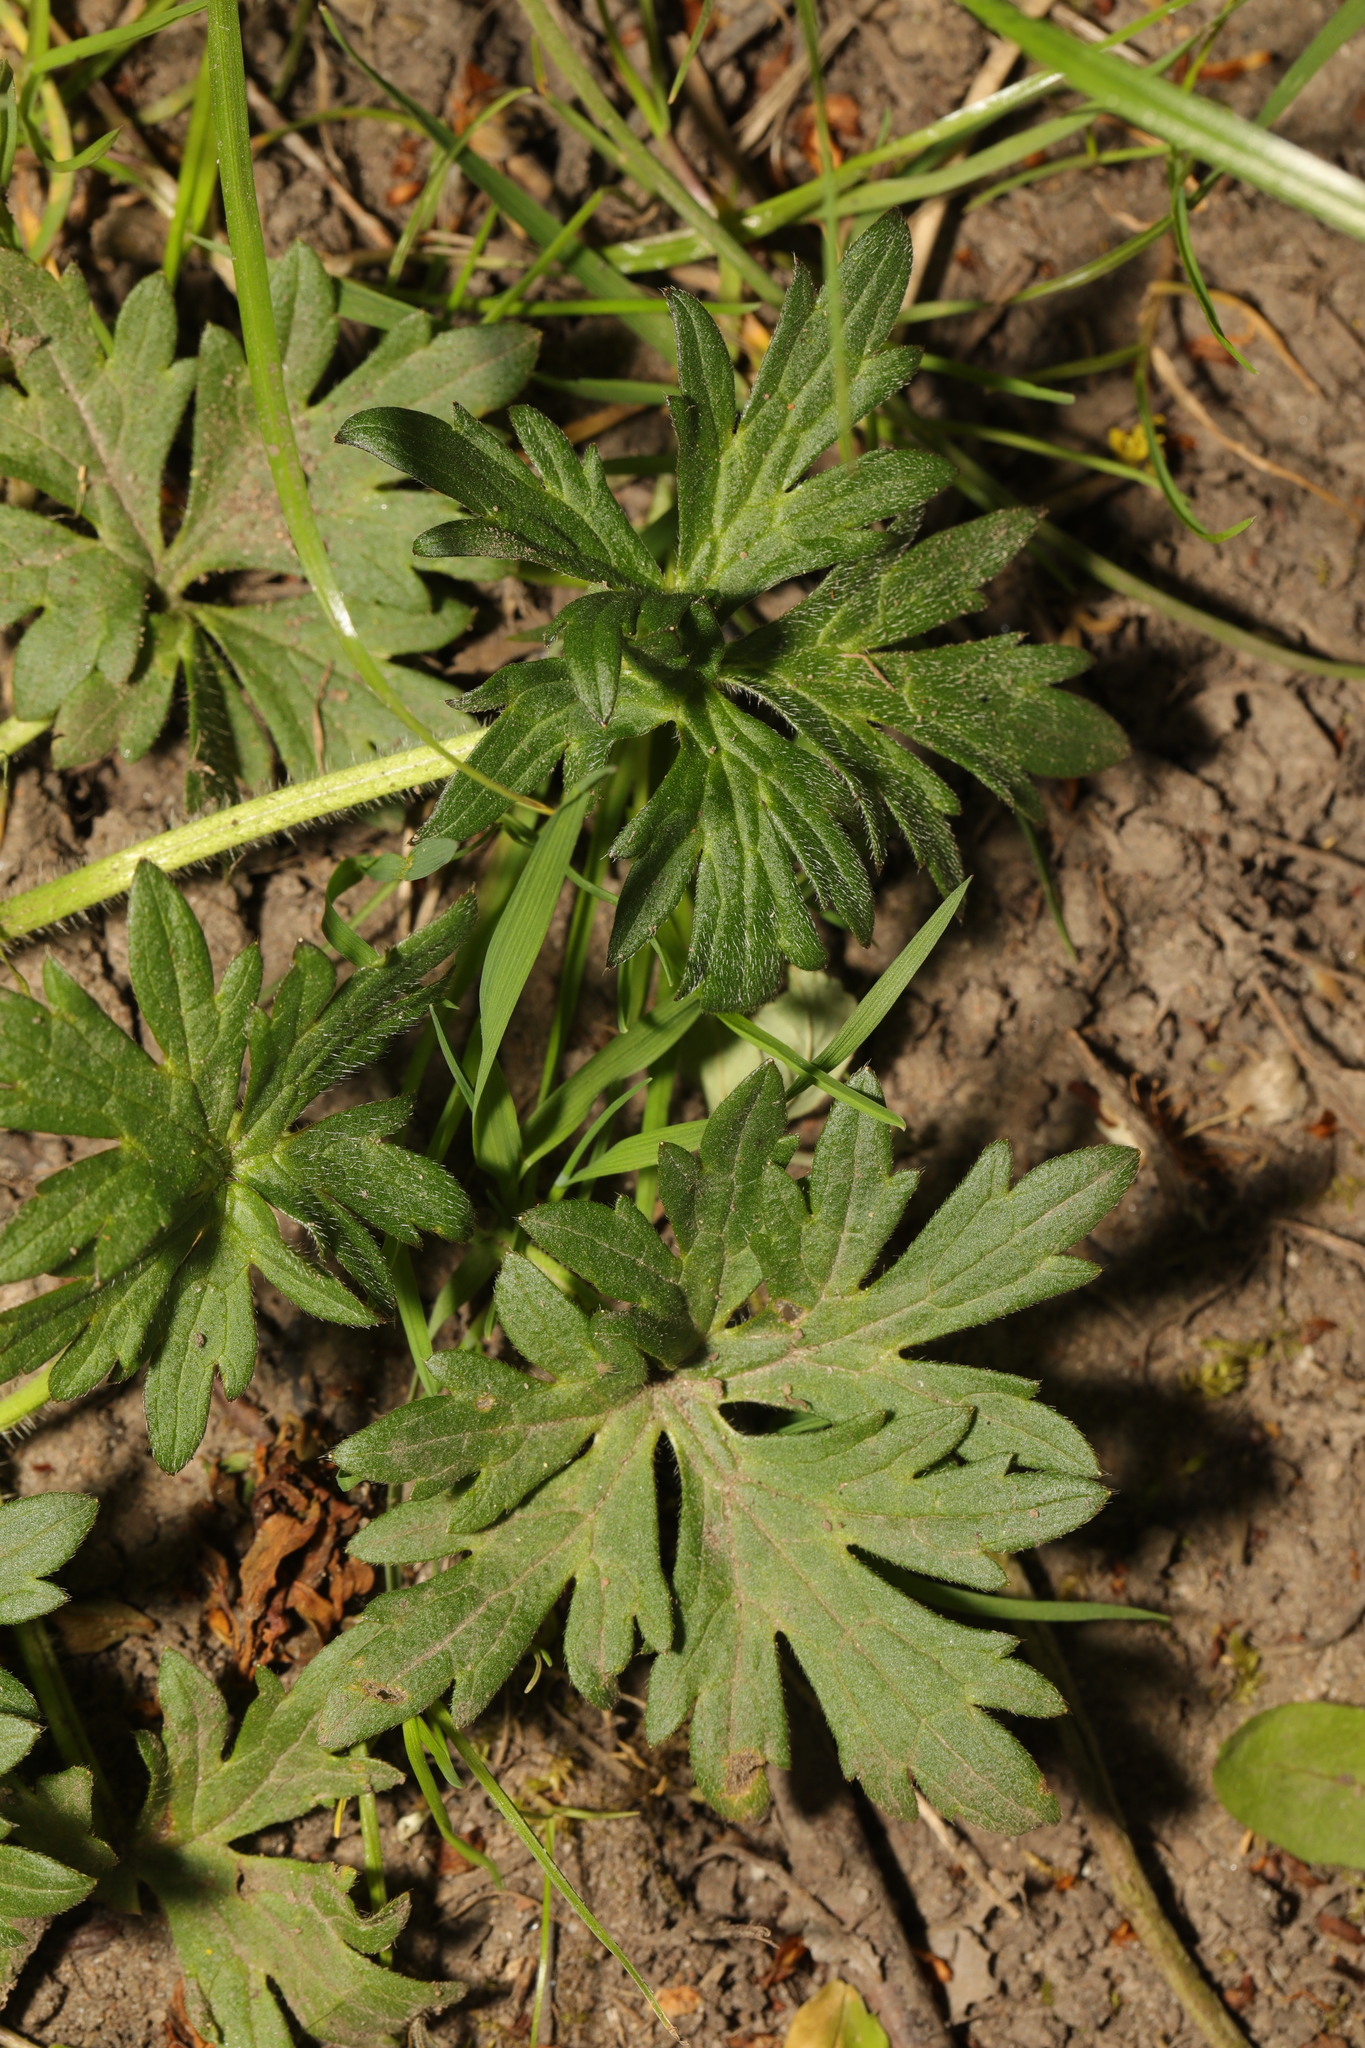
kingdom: Plantae
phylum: Tracheophyta
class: Magnoliopsida
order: Ranunculales
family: Ranunculaceae
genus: Ranunculus
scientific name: Ranunculus acris
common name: Meadow buttercup
